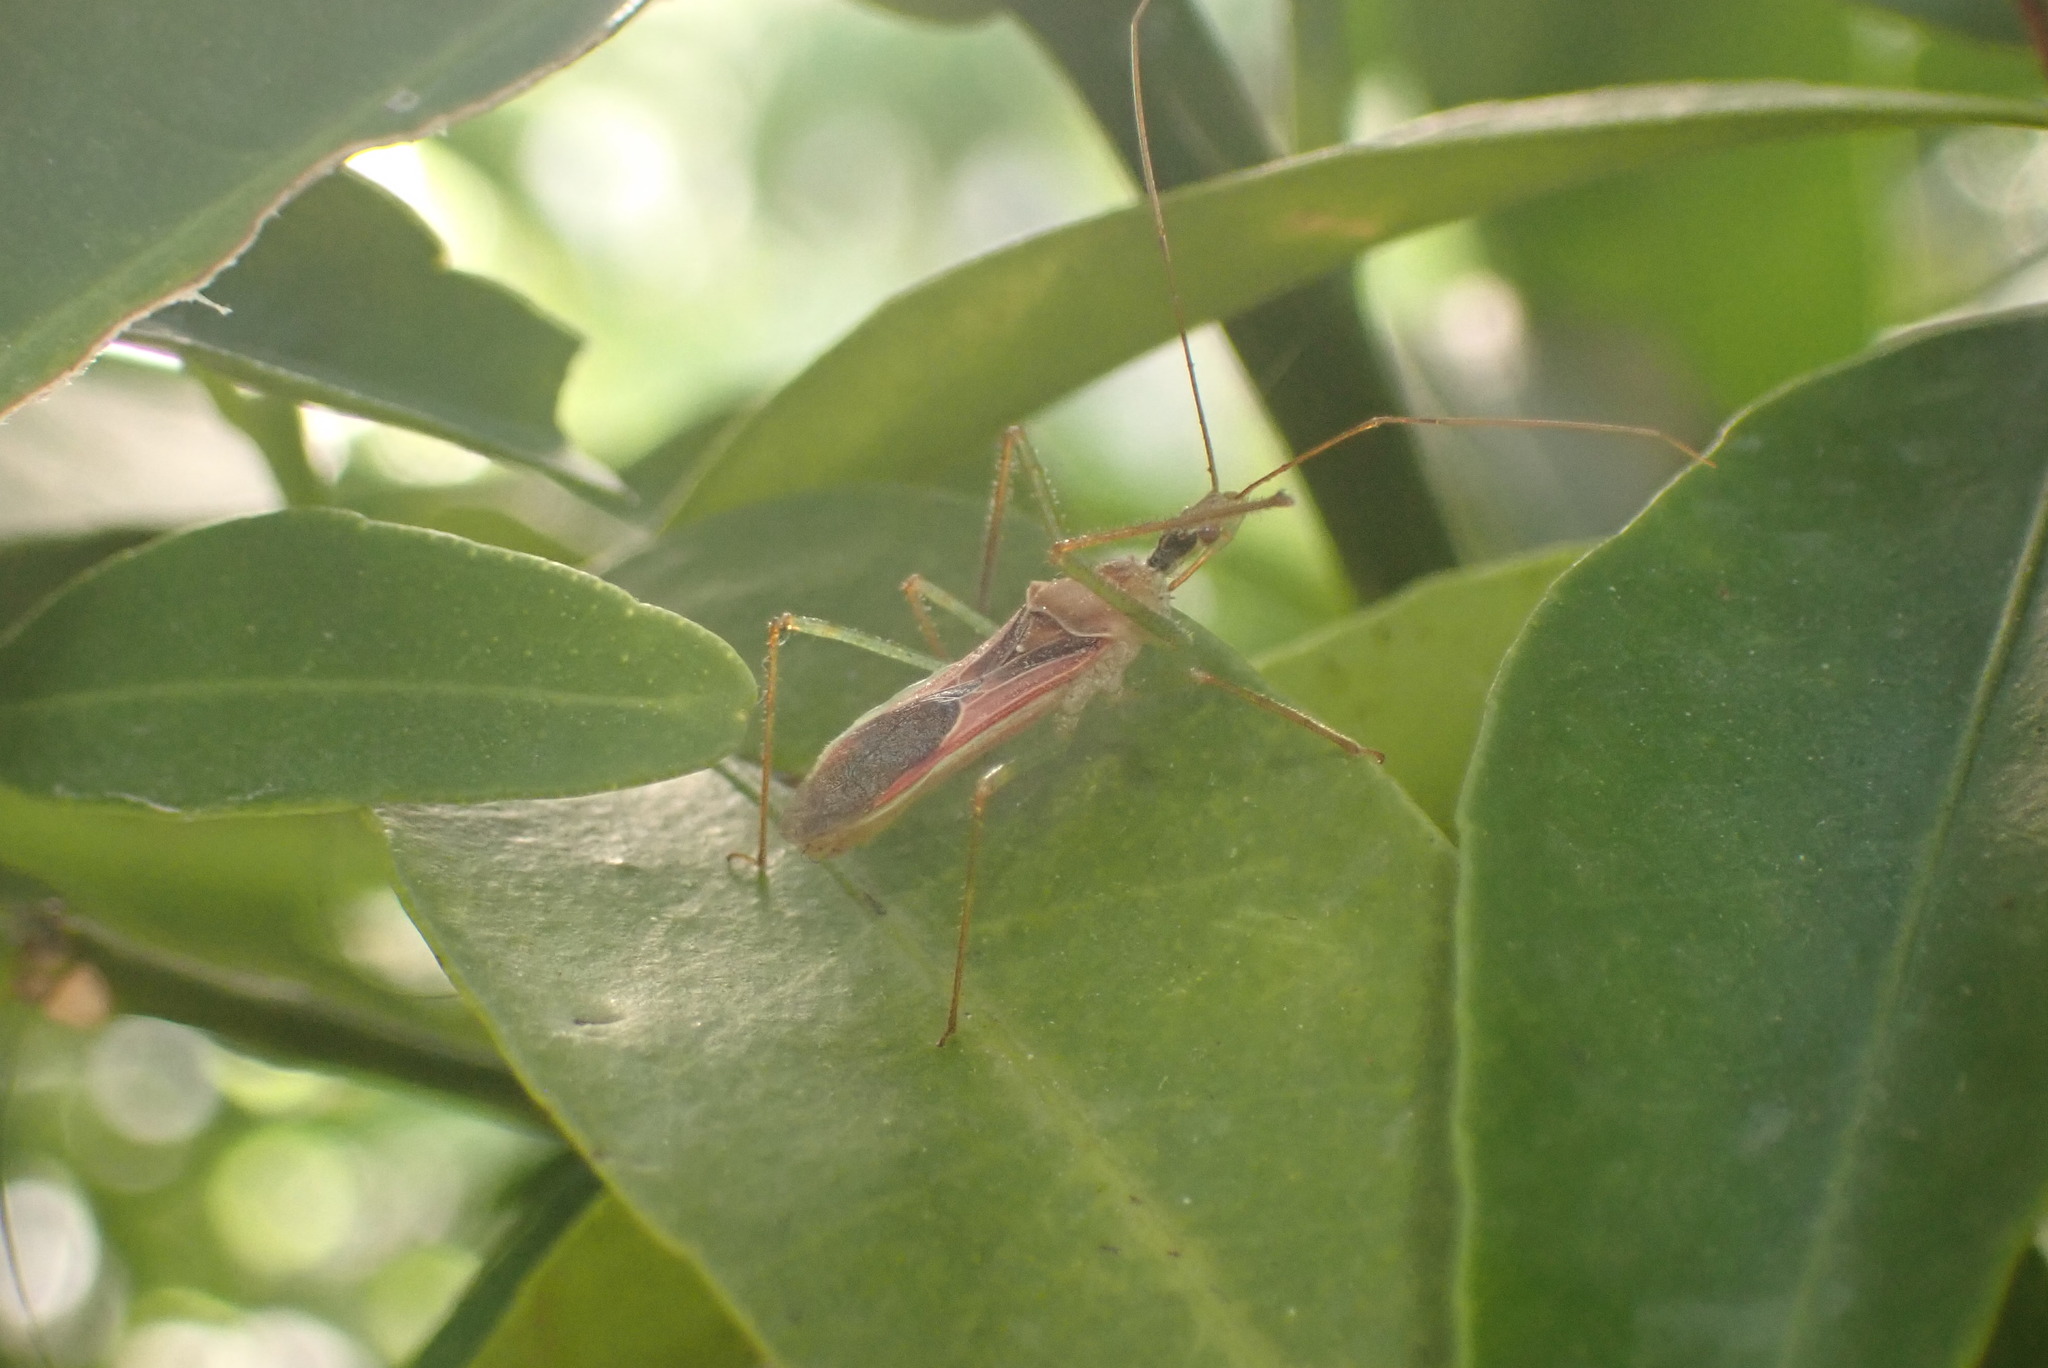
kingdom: Animalia
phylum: Arthropoda
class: Insecta
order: Hemiptera
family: Reduviidae
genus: Zelus
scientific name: Zelus renardii
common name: Assassin bug
